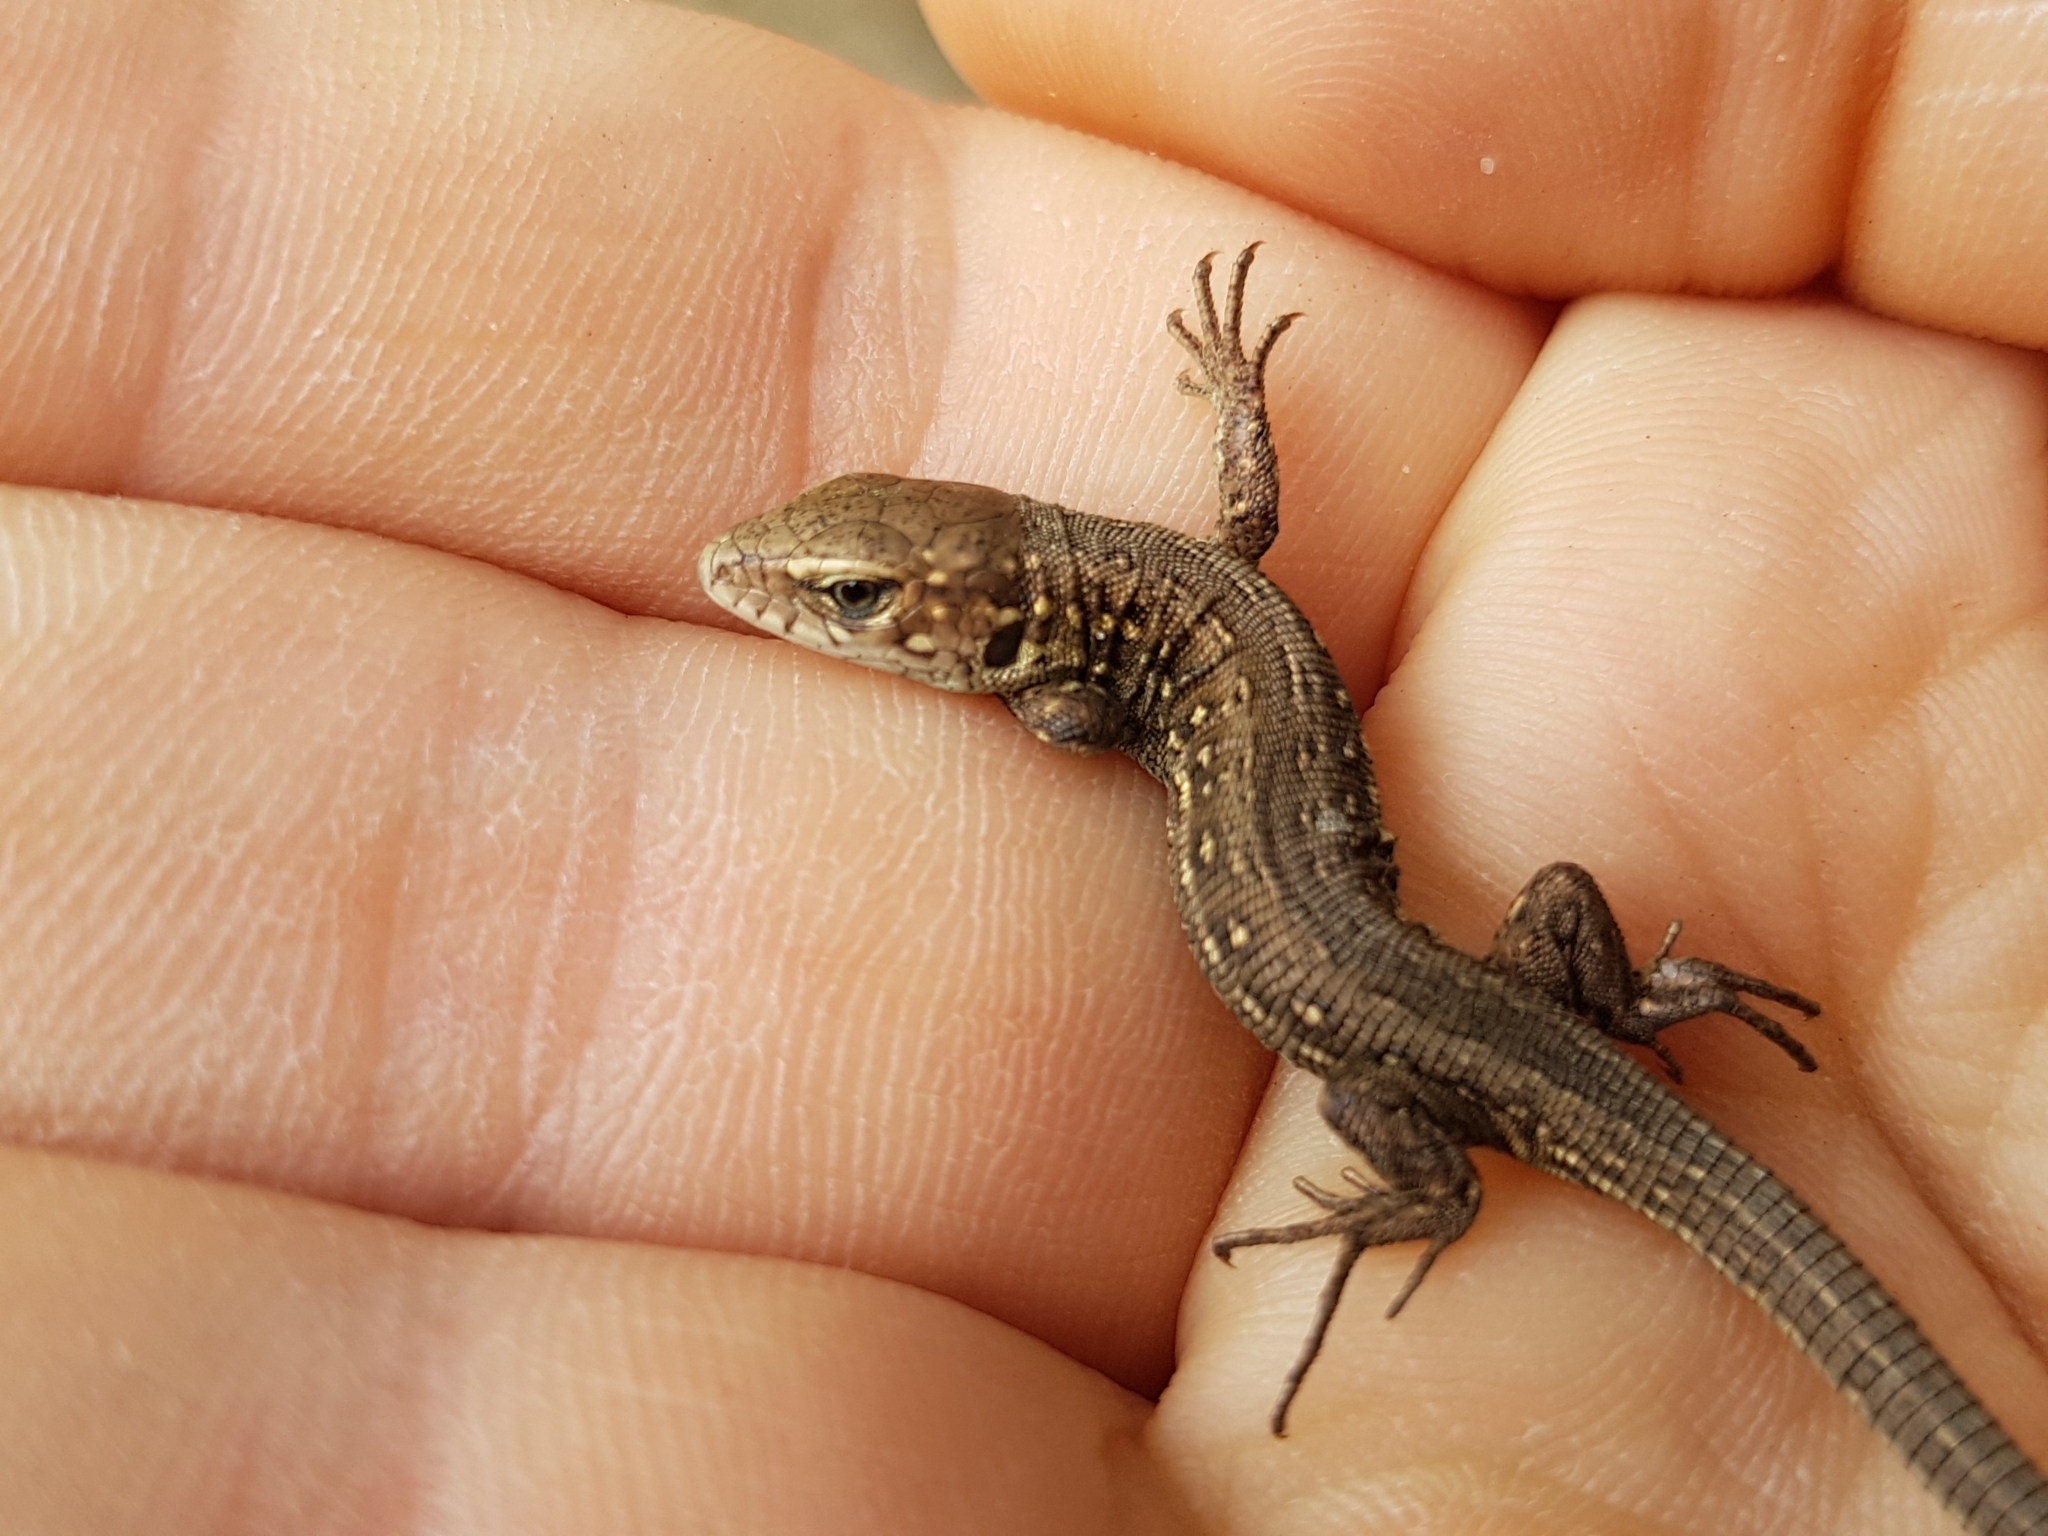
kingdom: Animalia
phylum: Chordata
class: Squamata
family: Lacertidae
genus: Lacerta
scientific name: Lacerta agilis
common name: Sand lizard
